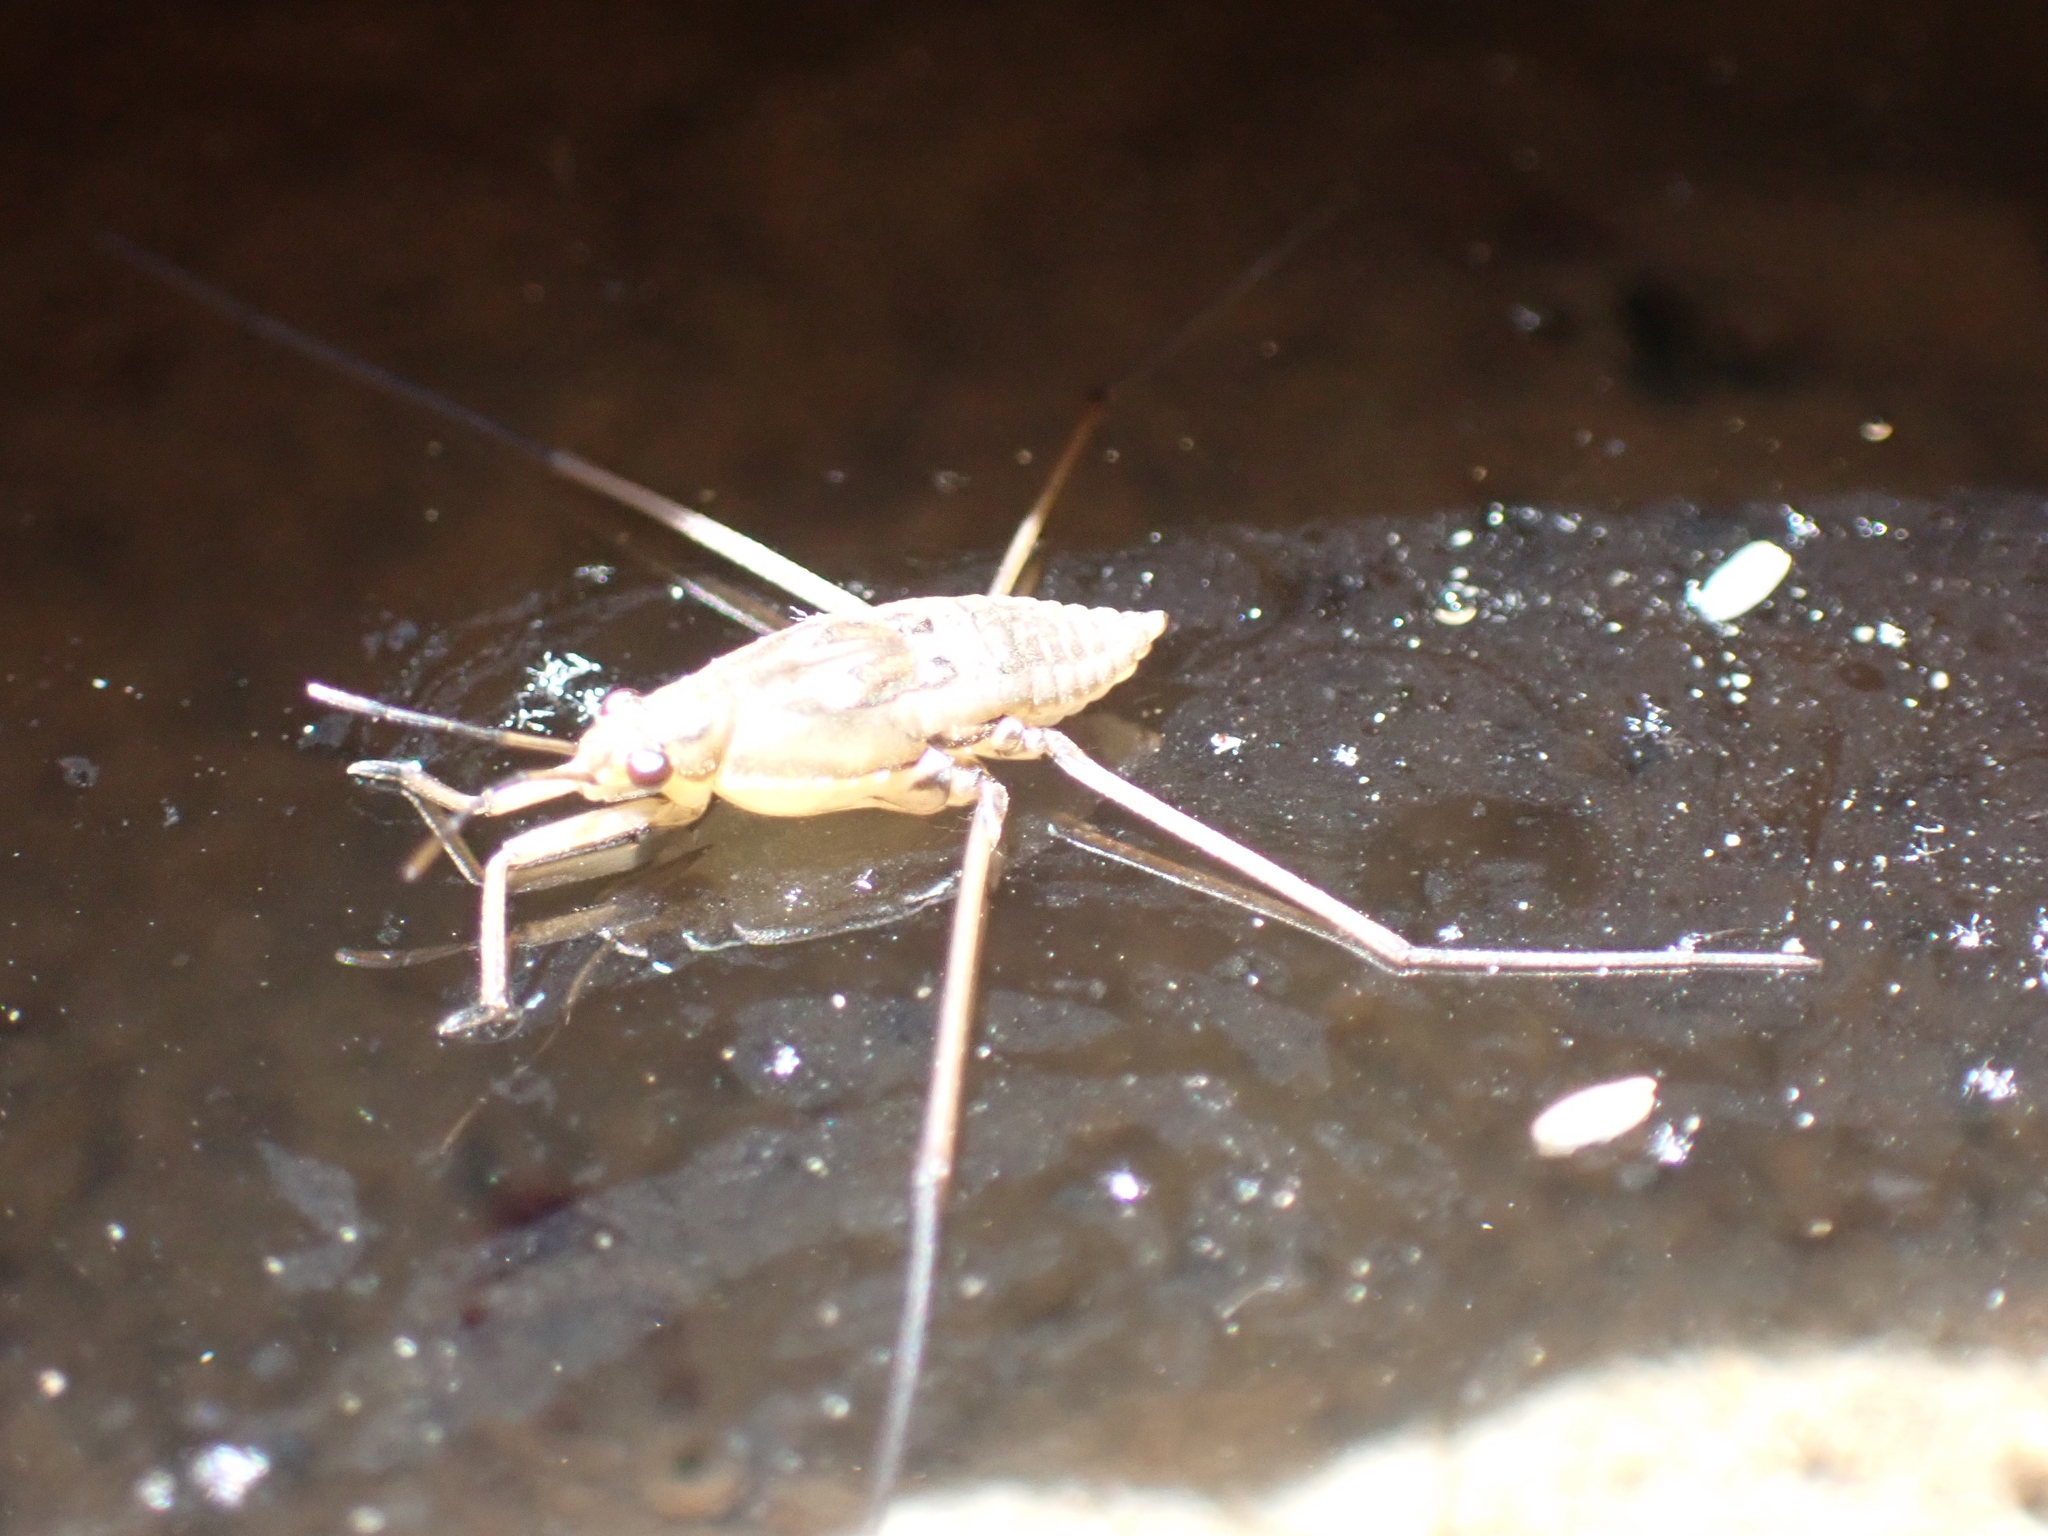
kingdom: Animalia
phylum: Arthropoda
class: Insecta
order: Hemiptera
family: Gerridae
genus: Aquarius
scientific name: Aquarius
